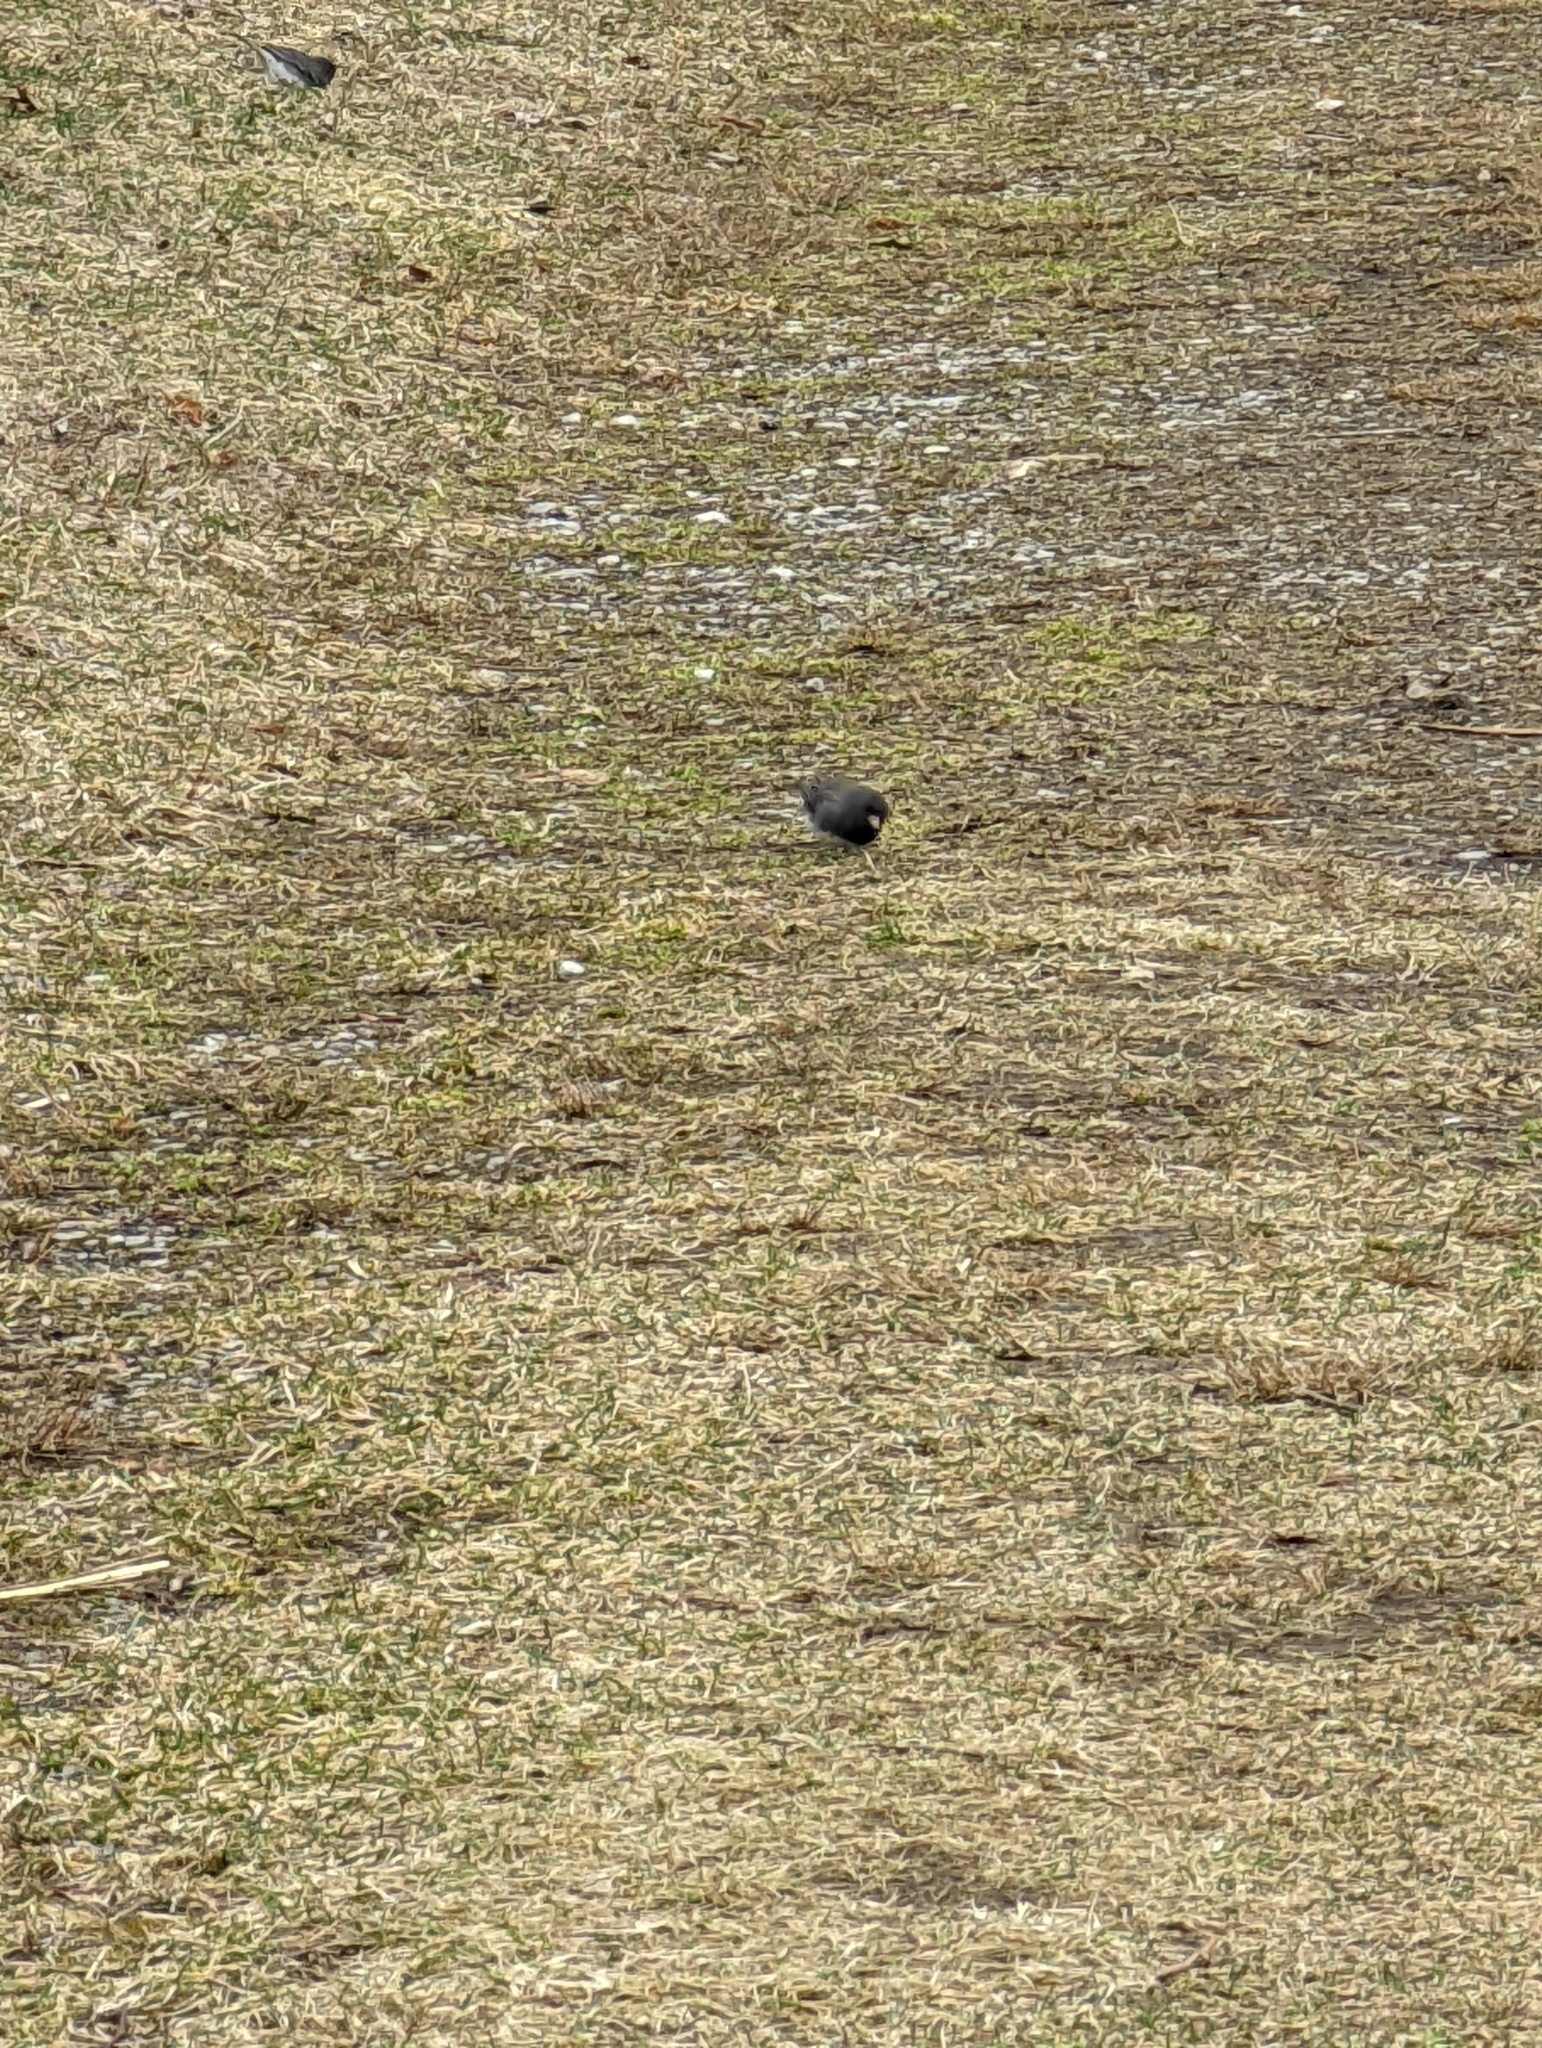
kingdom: Animalia
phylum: Chordata
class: Aves
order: Passeriformes
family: Passerellidae
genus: Junco
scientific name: Junco hyemalis
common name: Dark-eyed junco
